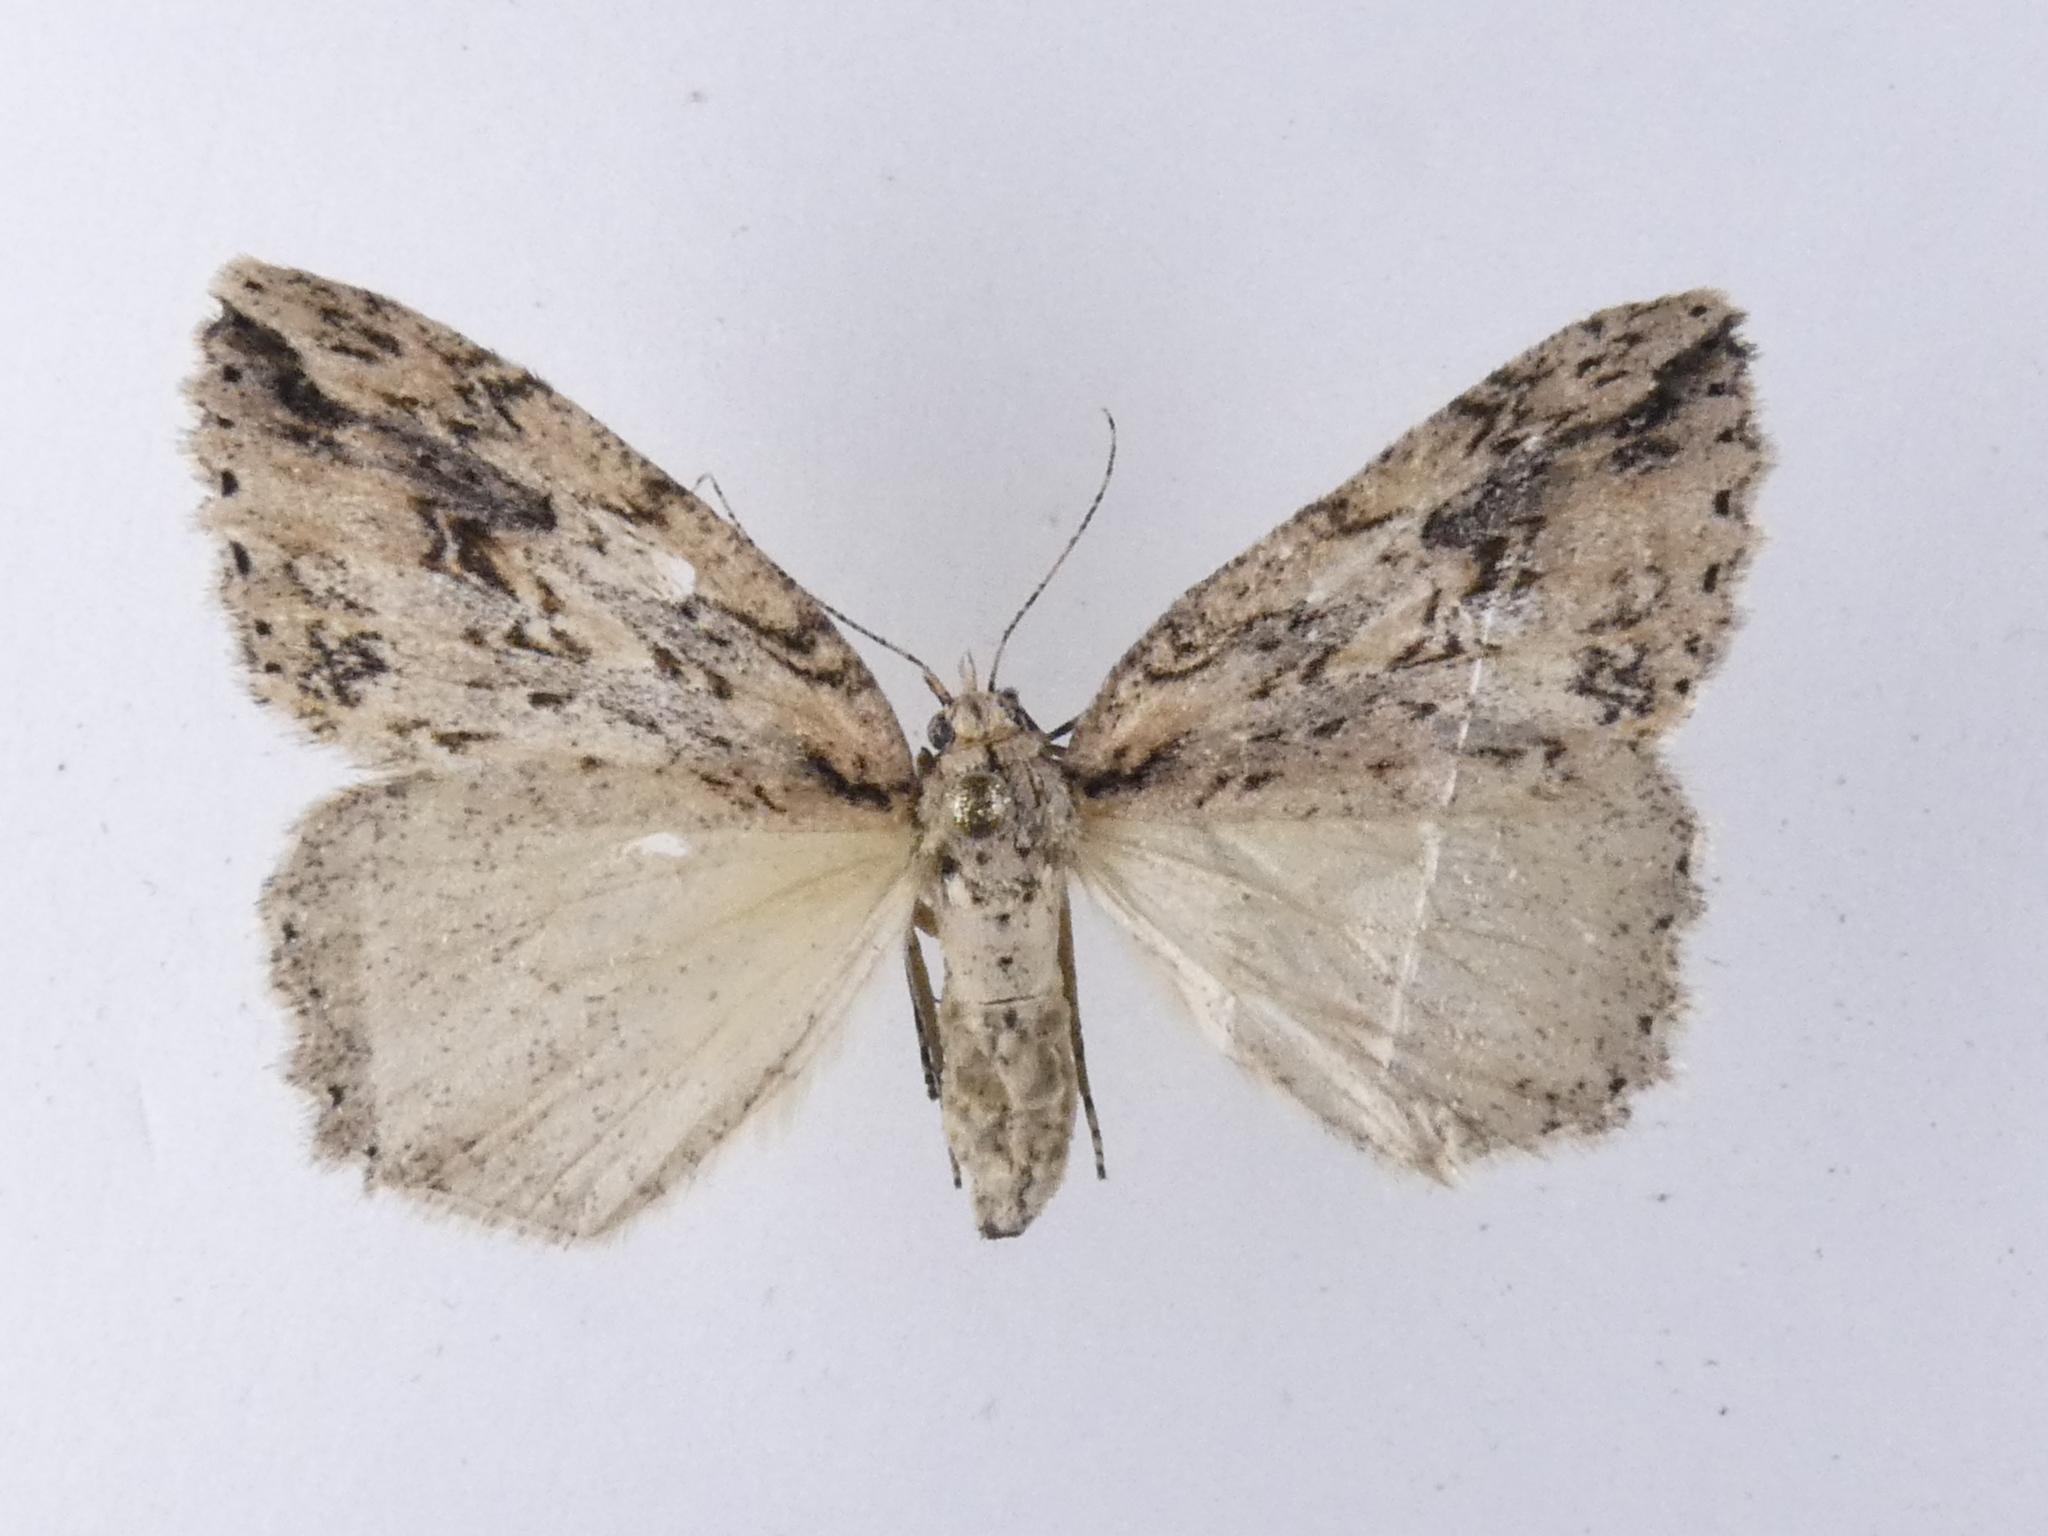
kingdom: Animalia
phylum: Arthropoda
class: Insecta
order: Lepidoptera
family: Geometridae
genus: Pseudocoremia
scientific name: Pseudocoremia rudisata
